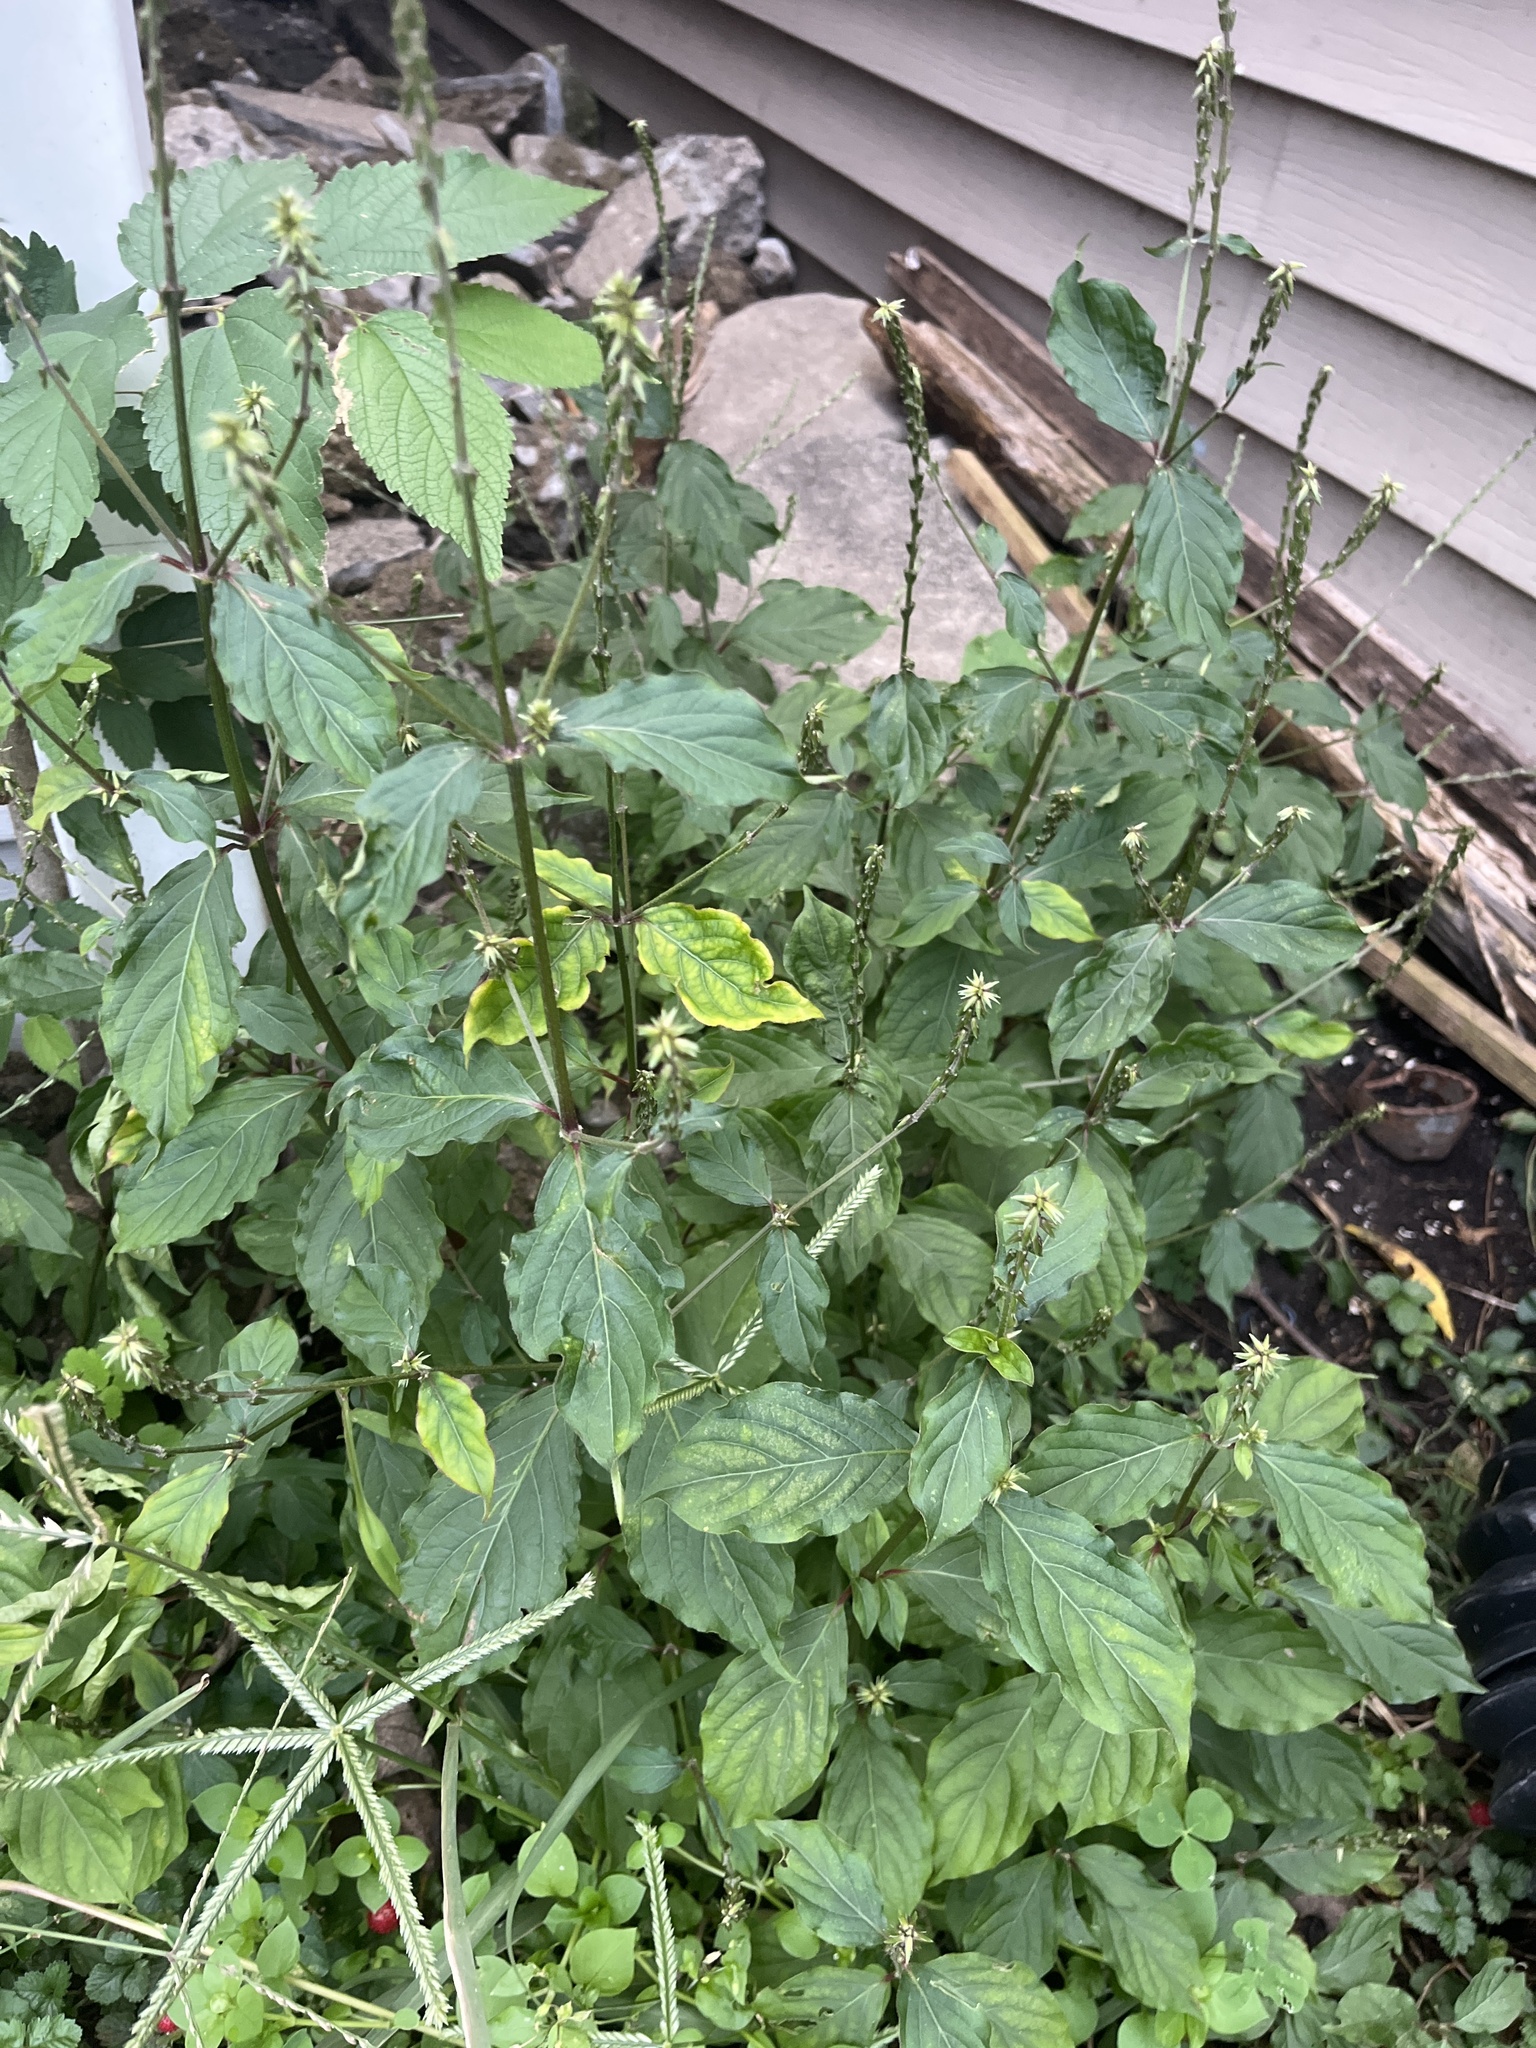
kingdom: Plantae
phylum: Tracheophyta
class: Magnoliopsida
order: Caryophyllales
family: Amaranthaceae
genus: Achyranthes
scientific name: Achyranthes bidentata
